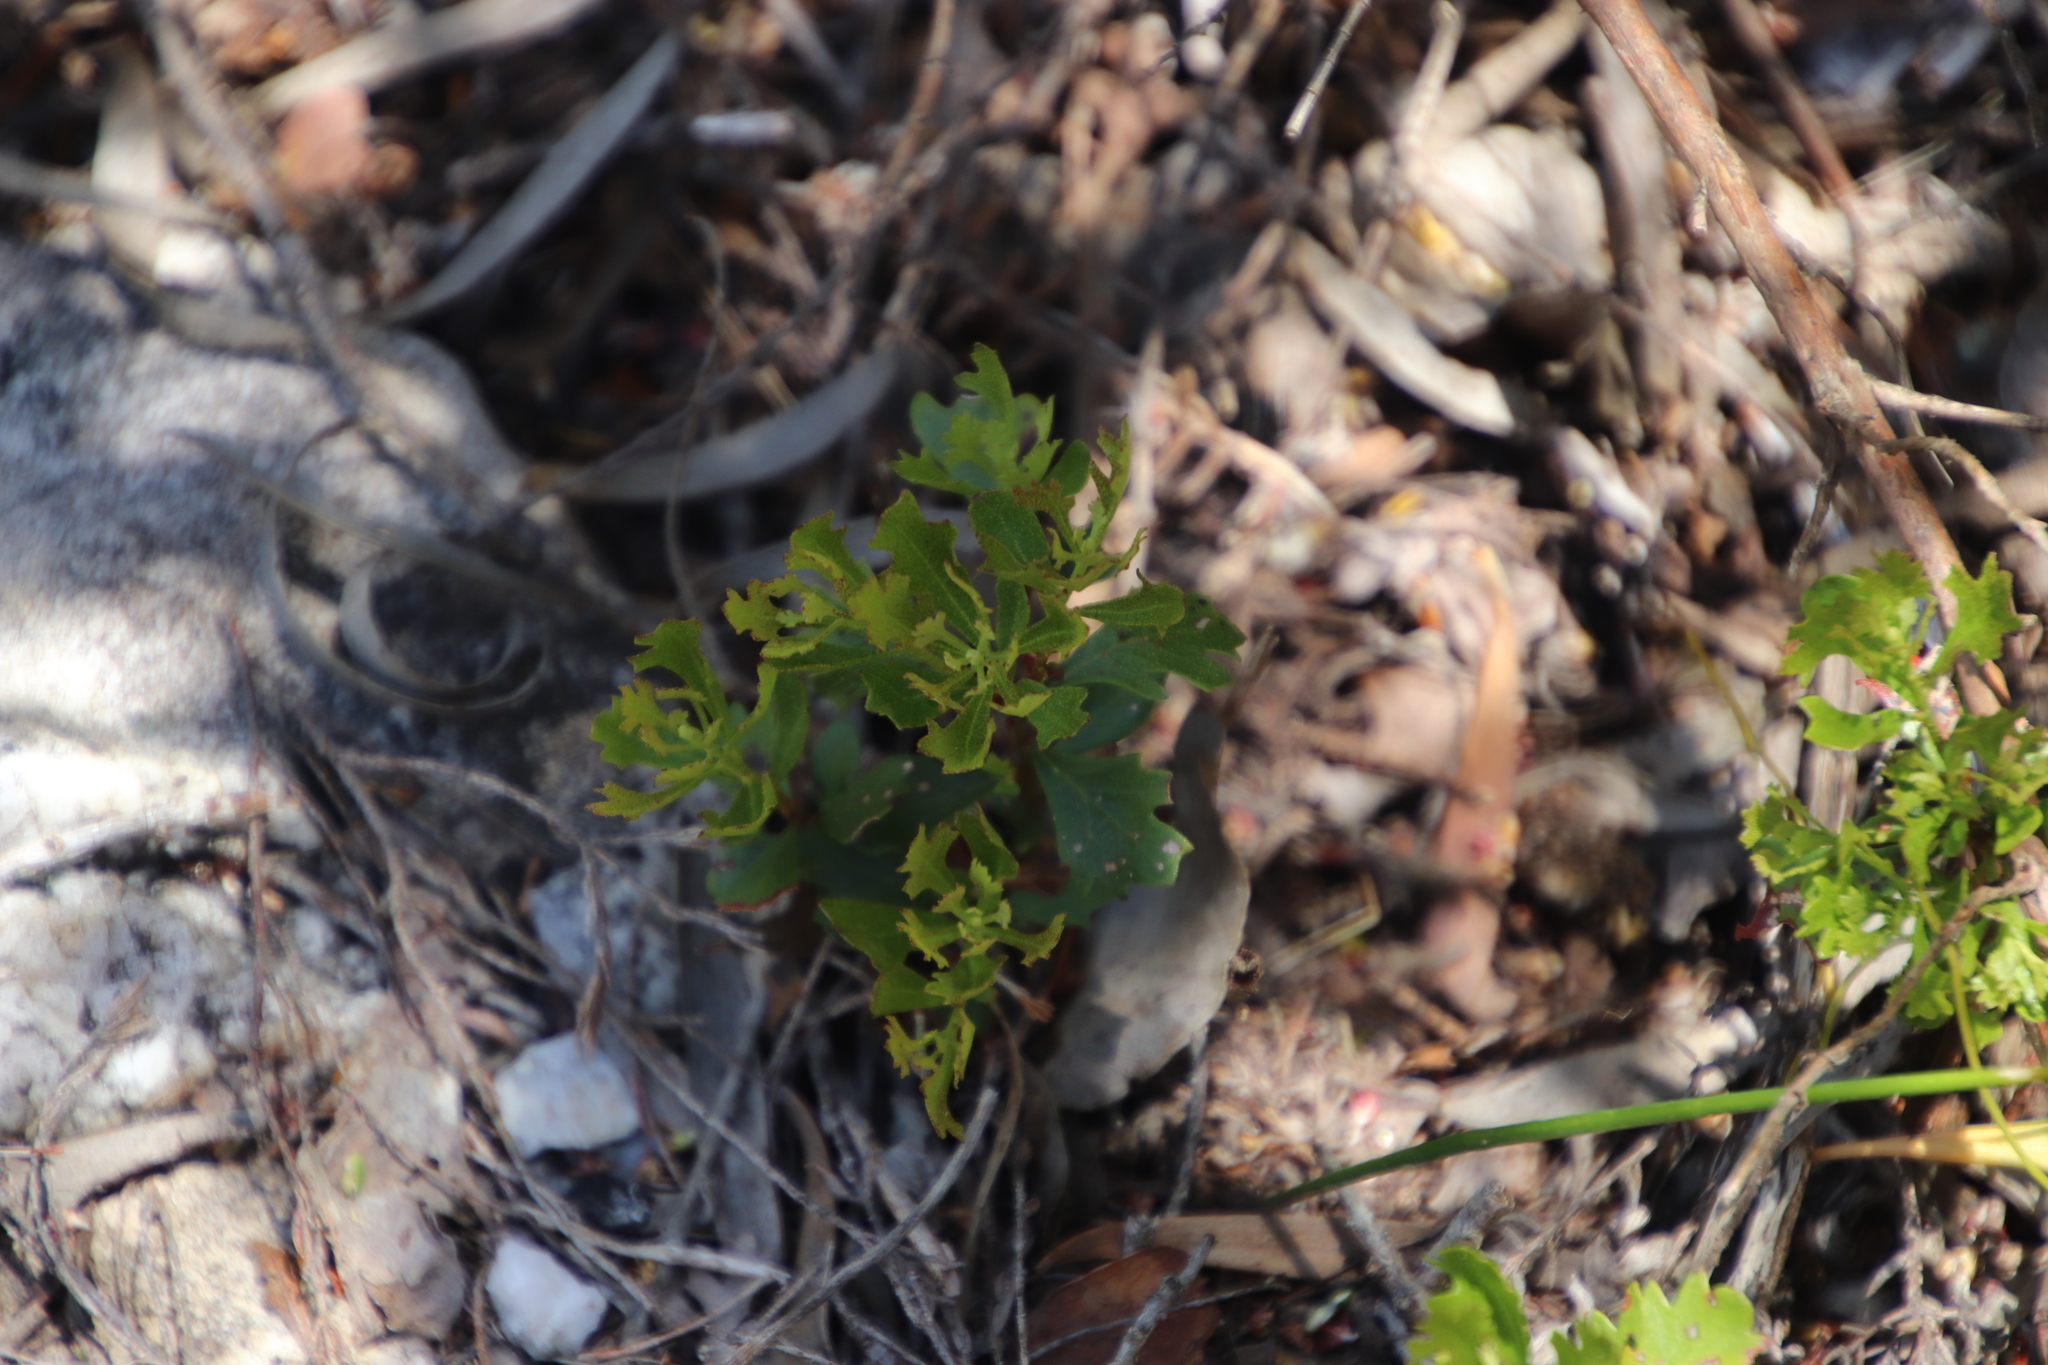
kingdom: Plantae
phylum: Tracheophyta
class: Magnoliopsida
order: Fagales
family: Myricaceae
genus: Morella
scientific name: Morella quercifolia
